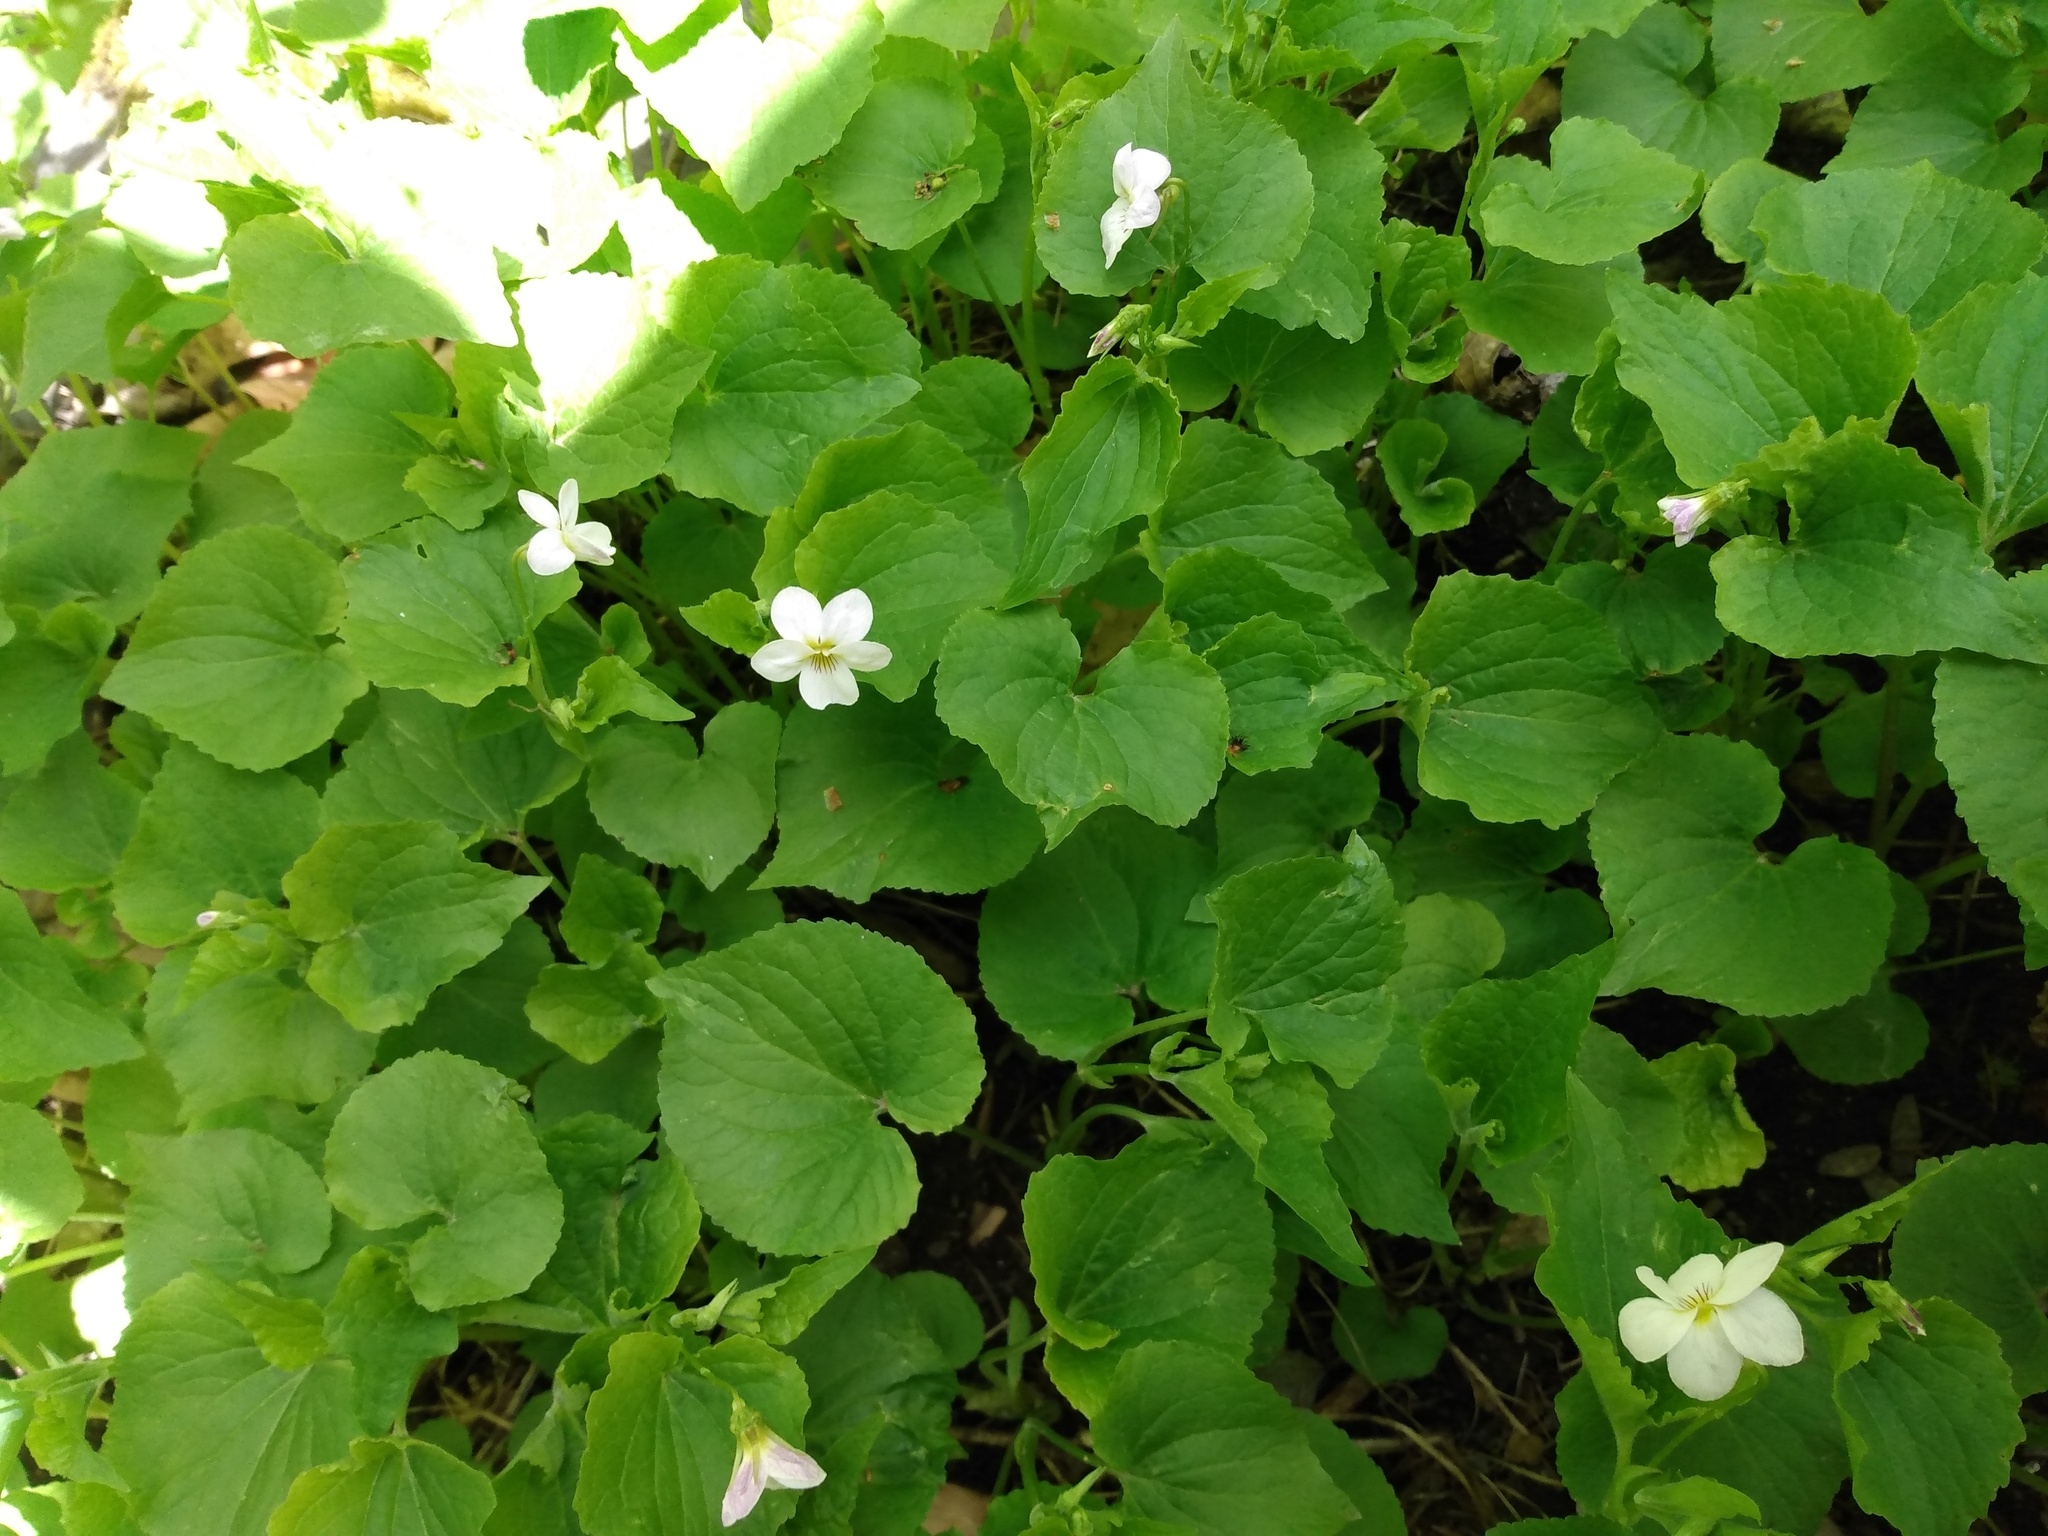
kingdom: Plantae
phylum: Tracheophyta
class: Magnoliopsida
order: Malpighiales
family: Violaceae
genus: Viola
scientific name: Viola canadensis
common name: Canada violet
